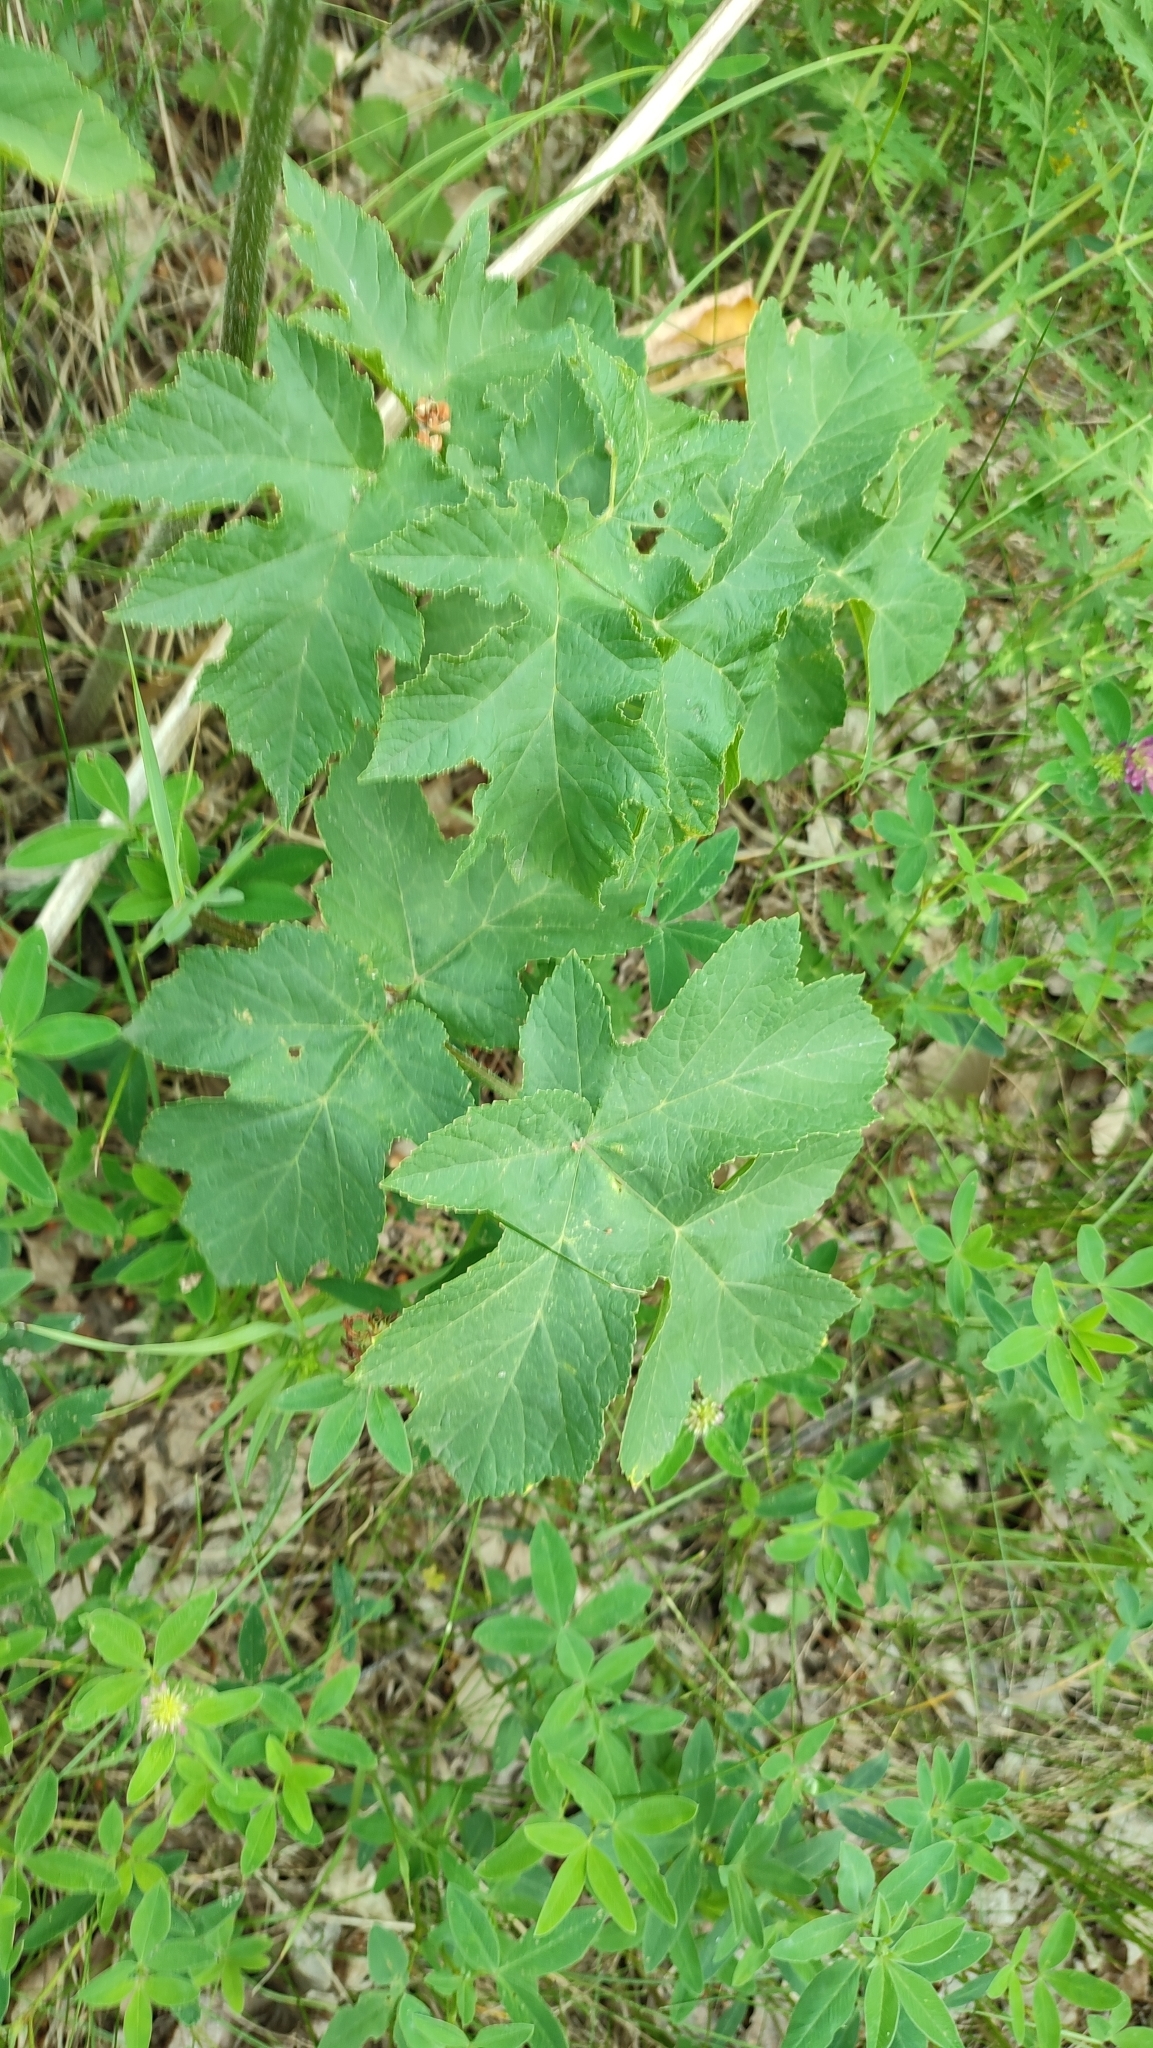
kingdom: Plantae
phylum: Tracheophyta
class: Magnoliopsida
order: Apiales
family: Apiaceae
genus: Heracleum
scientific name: Heracleum sphondylium
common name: Hogweed
